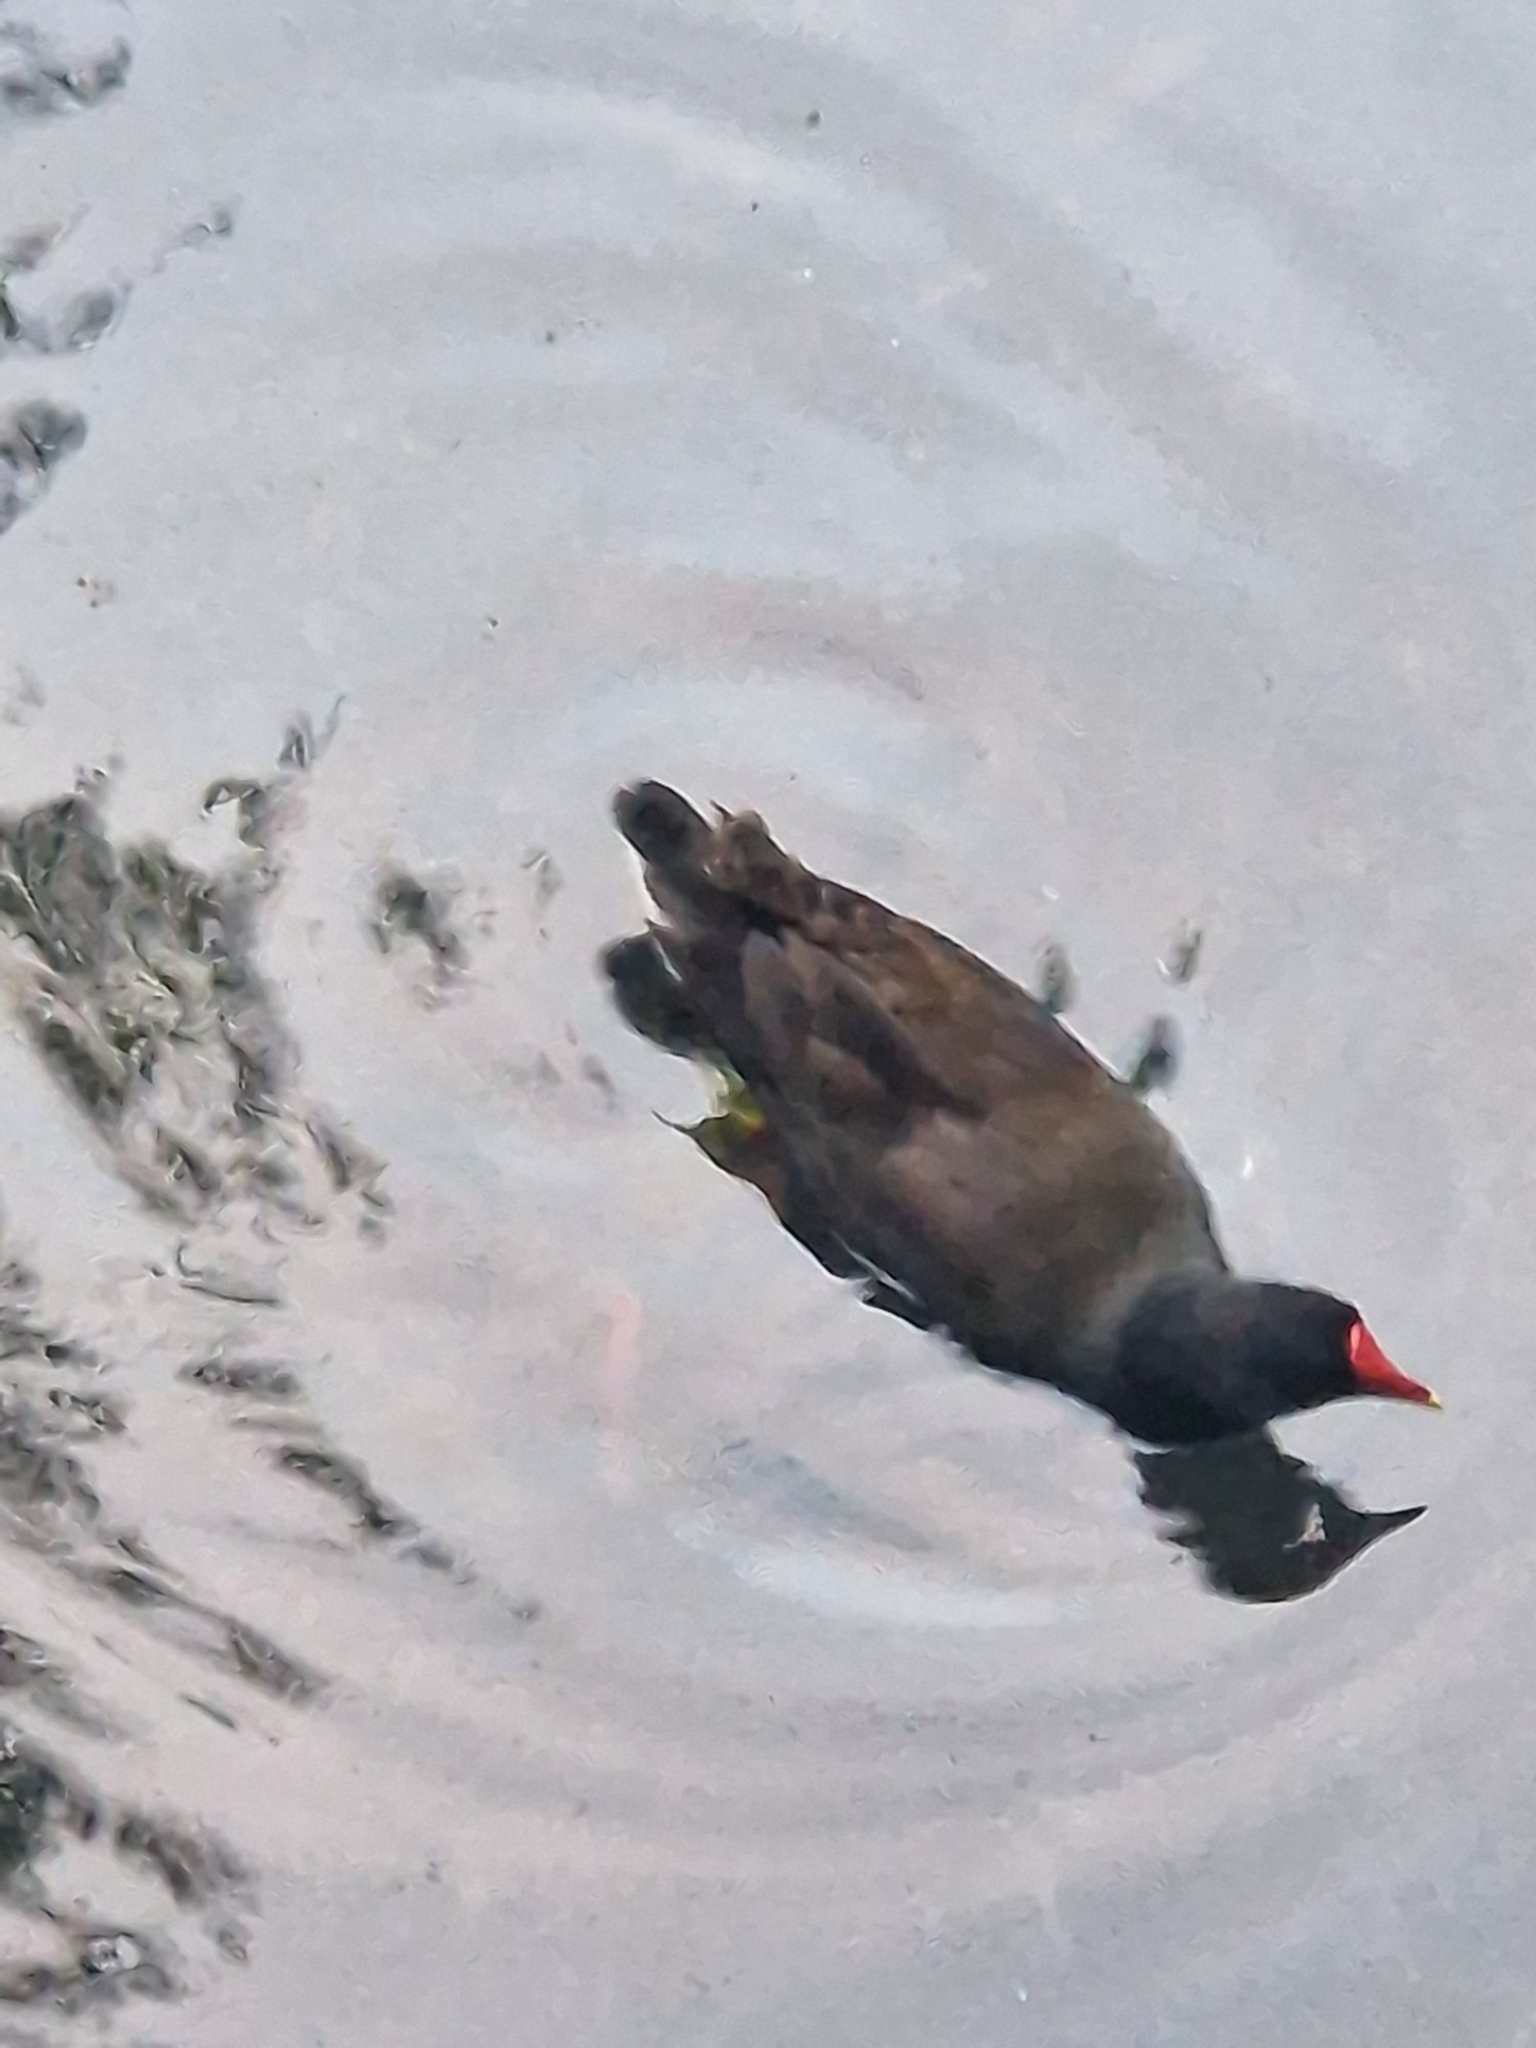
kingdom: Animalia
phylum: Chordata
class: Aves
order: Gruiformes
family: Rallidae
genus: Gallinula
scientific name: Gallinula chloropus
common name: Common moorhen
